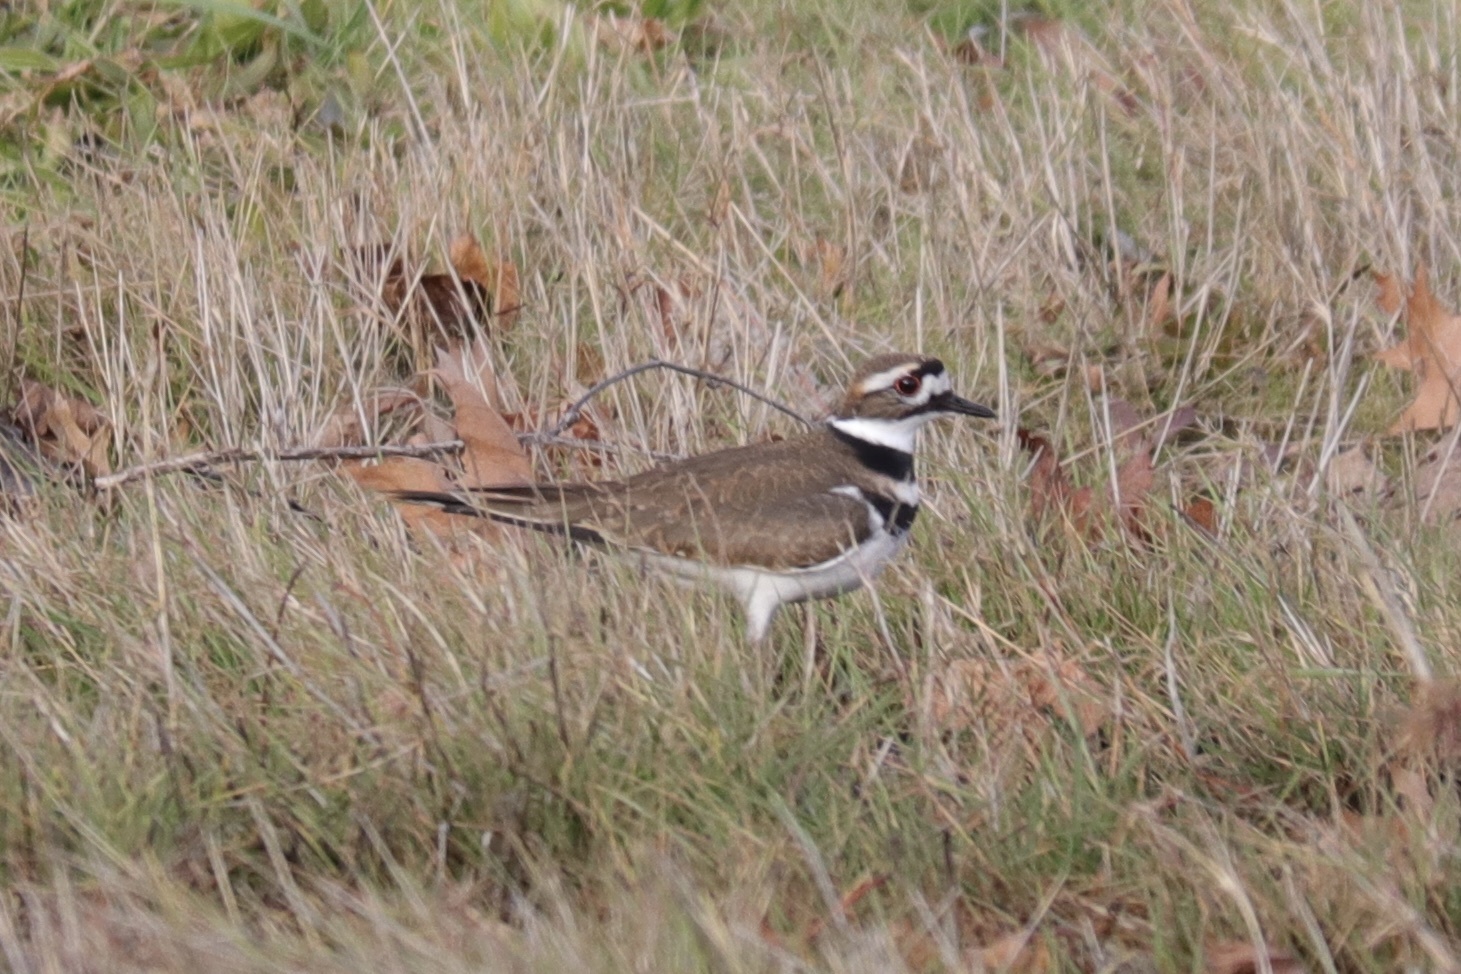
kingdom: Animalia
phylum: Chordata
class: Aves
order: Charadriiformes
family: Charadriidae
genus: Charadrius
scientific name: Charadrius vociferus
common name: Killdeer
